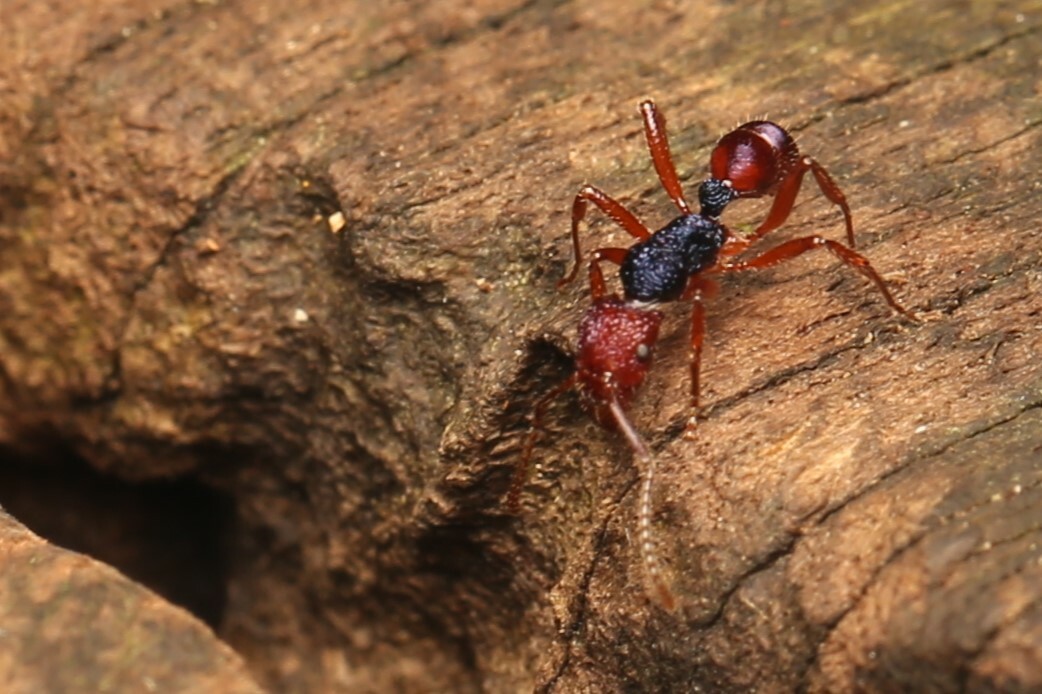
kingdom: Animalia
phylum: Arthropoda
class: Insecta
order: Hymenoptera
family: Formicidae
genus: Rhytidoponera
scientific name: Rhytidoponera croesus
